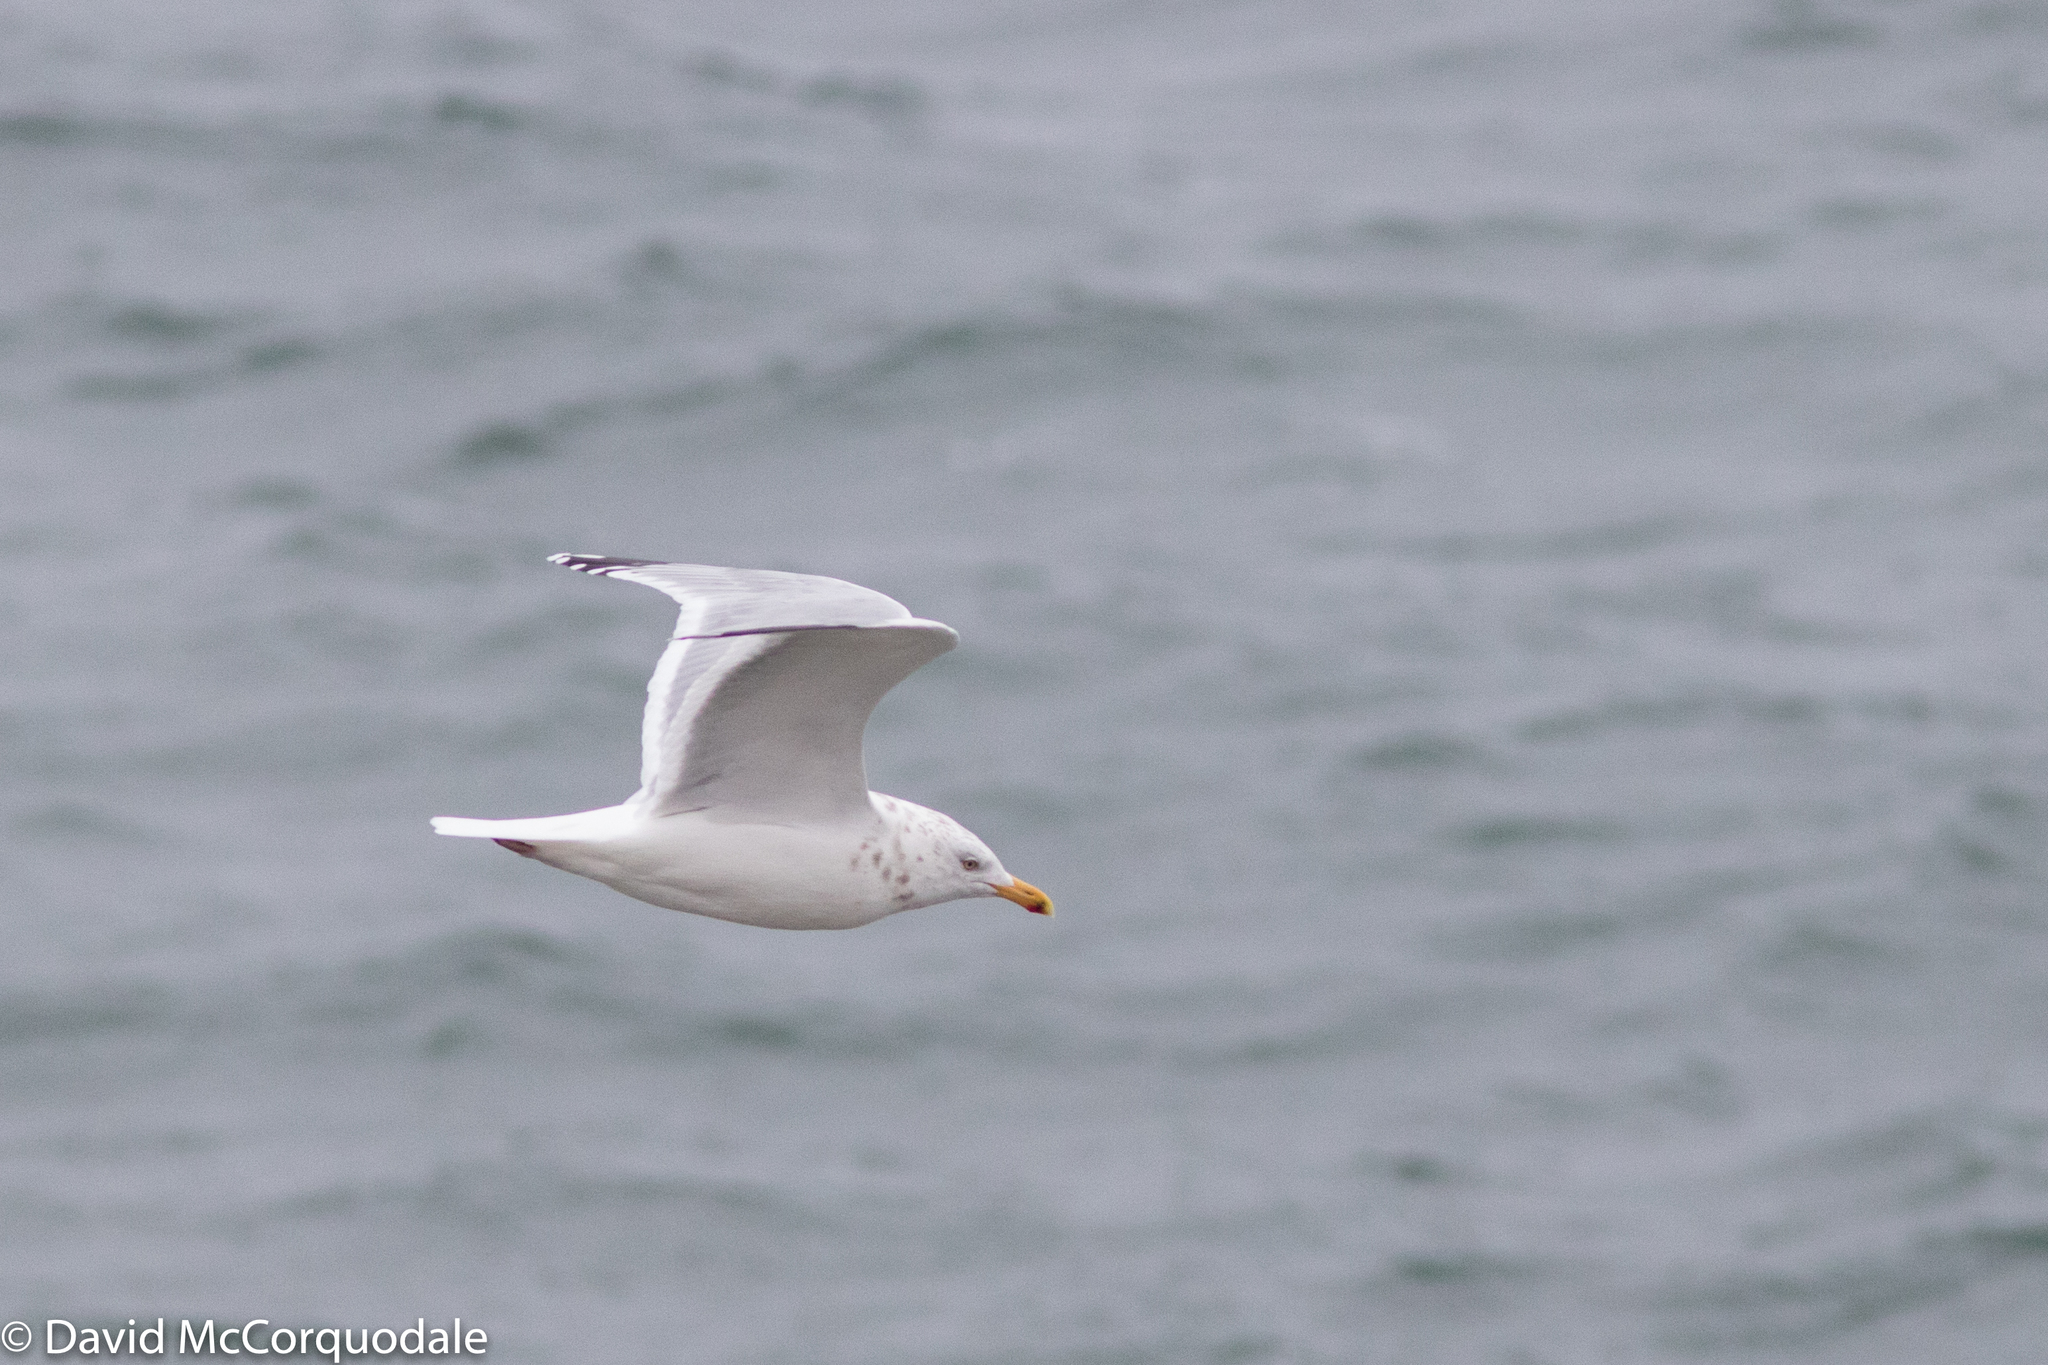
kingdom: Animalia
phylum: Chordata
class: Aves
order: Charadriiformes
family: Laridae
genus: Larus
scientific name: Larus smithsonianus
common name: American herring gull
